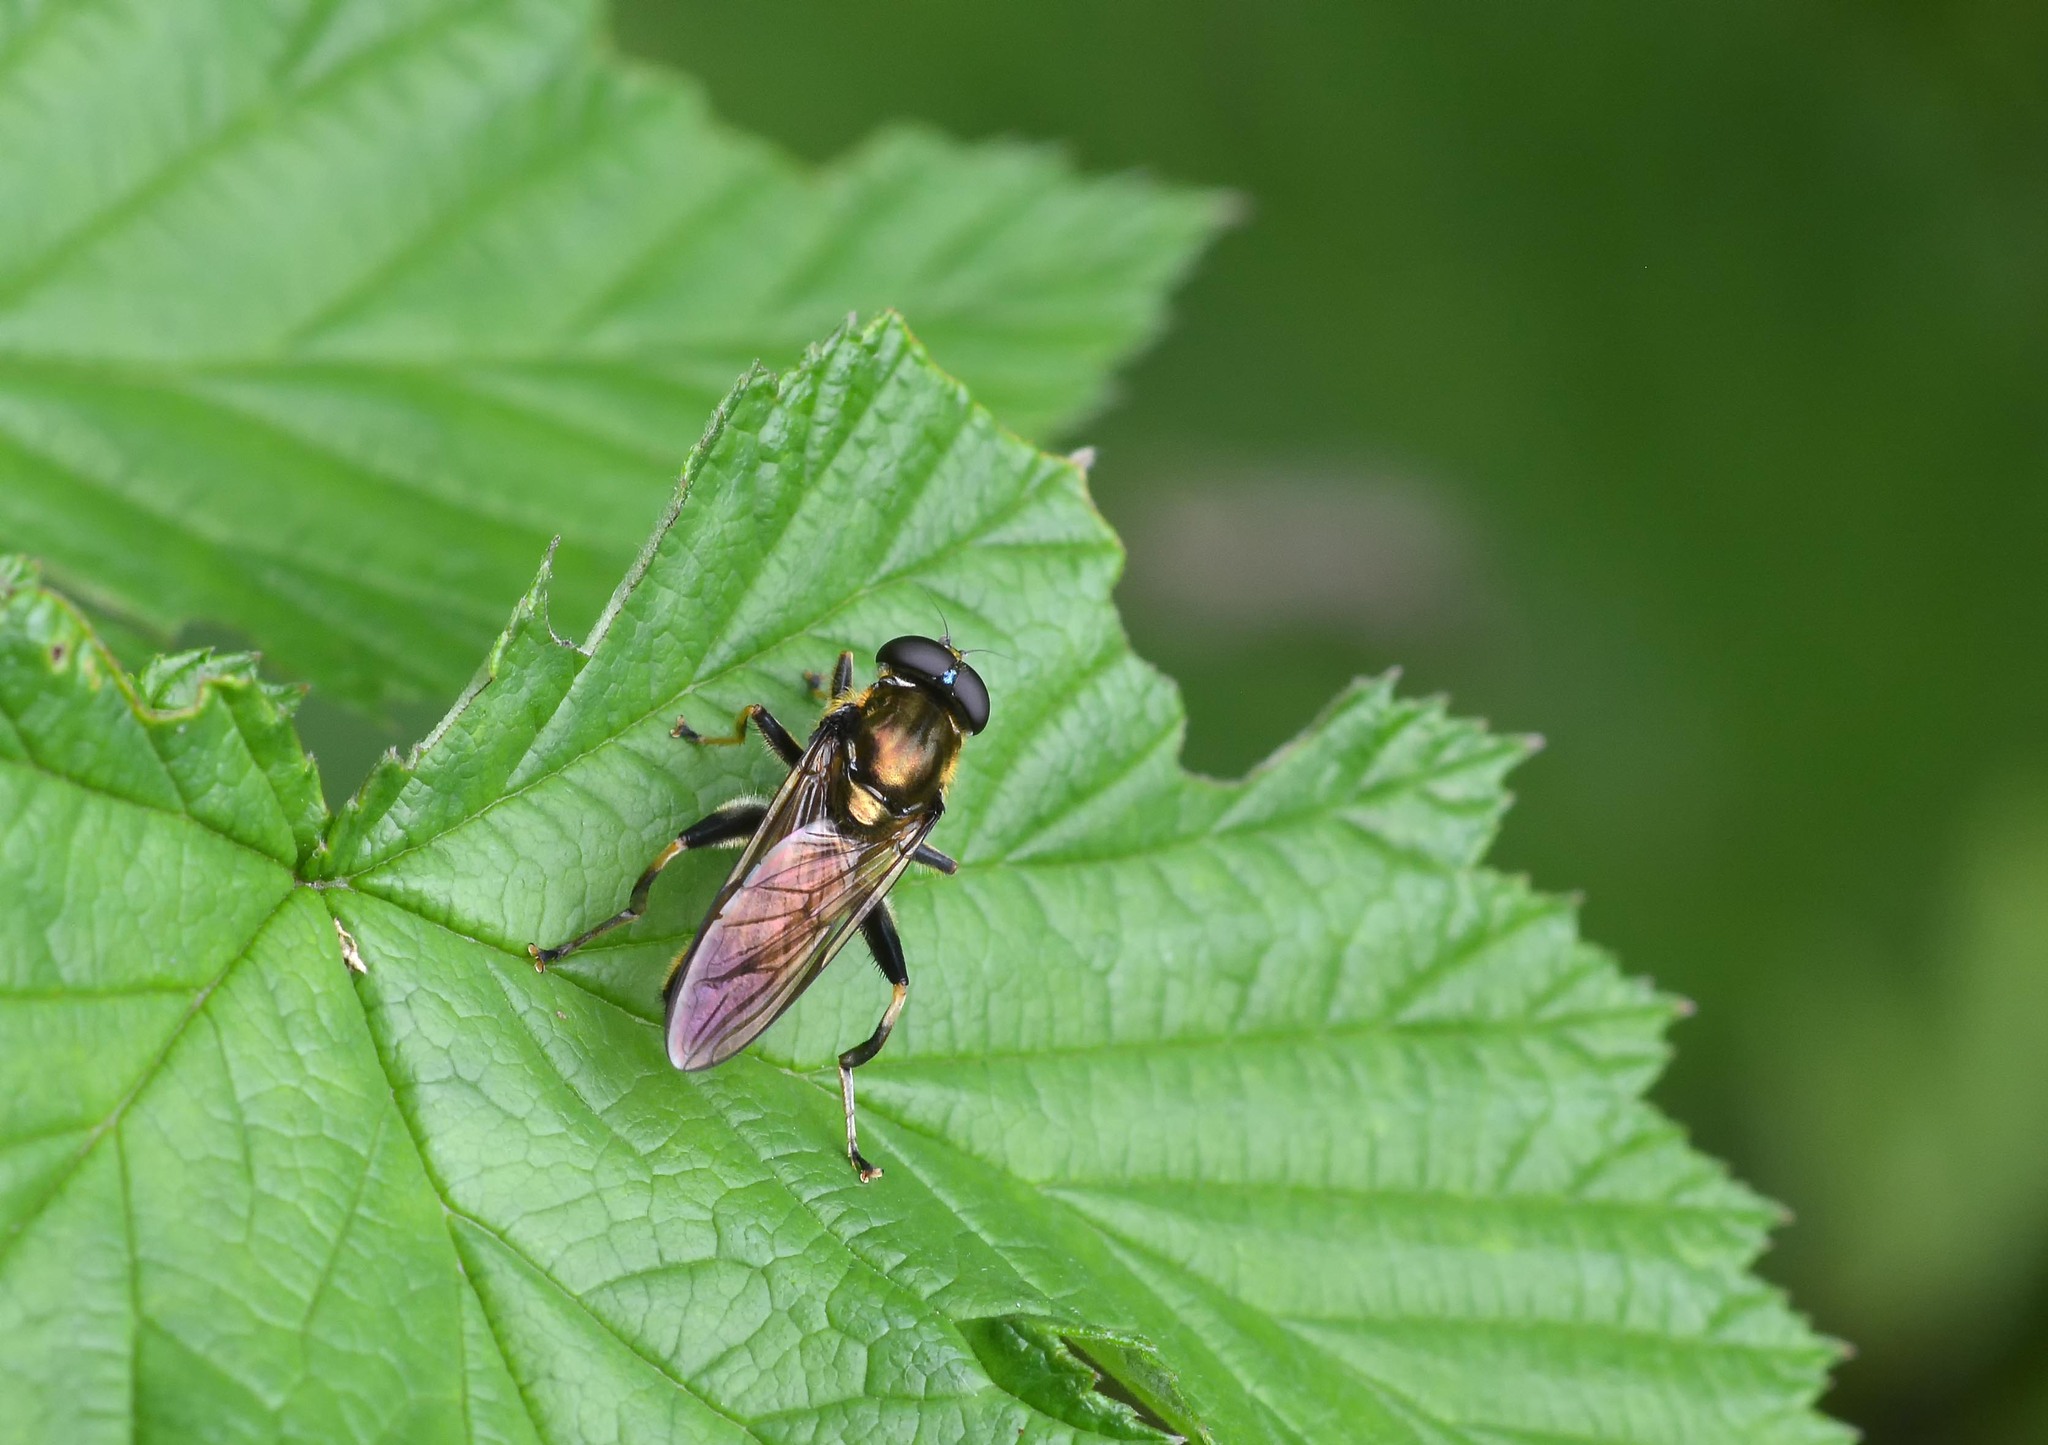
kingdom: Animalia
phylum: Arthropoda
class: Insecta
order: Diptera
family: Syrphidae
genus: Xylota
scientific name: Xylota segnis
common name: Brown-toed forest fly
